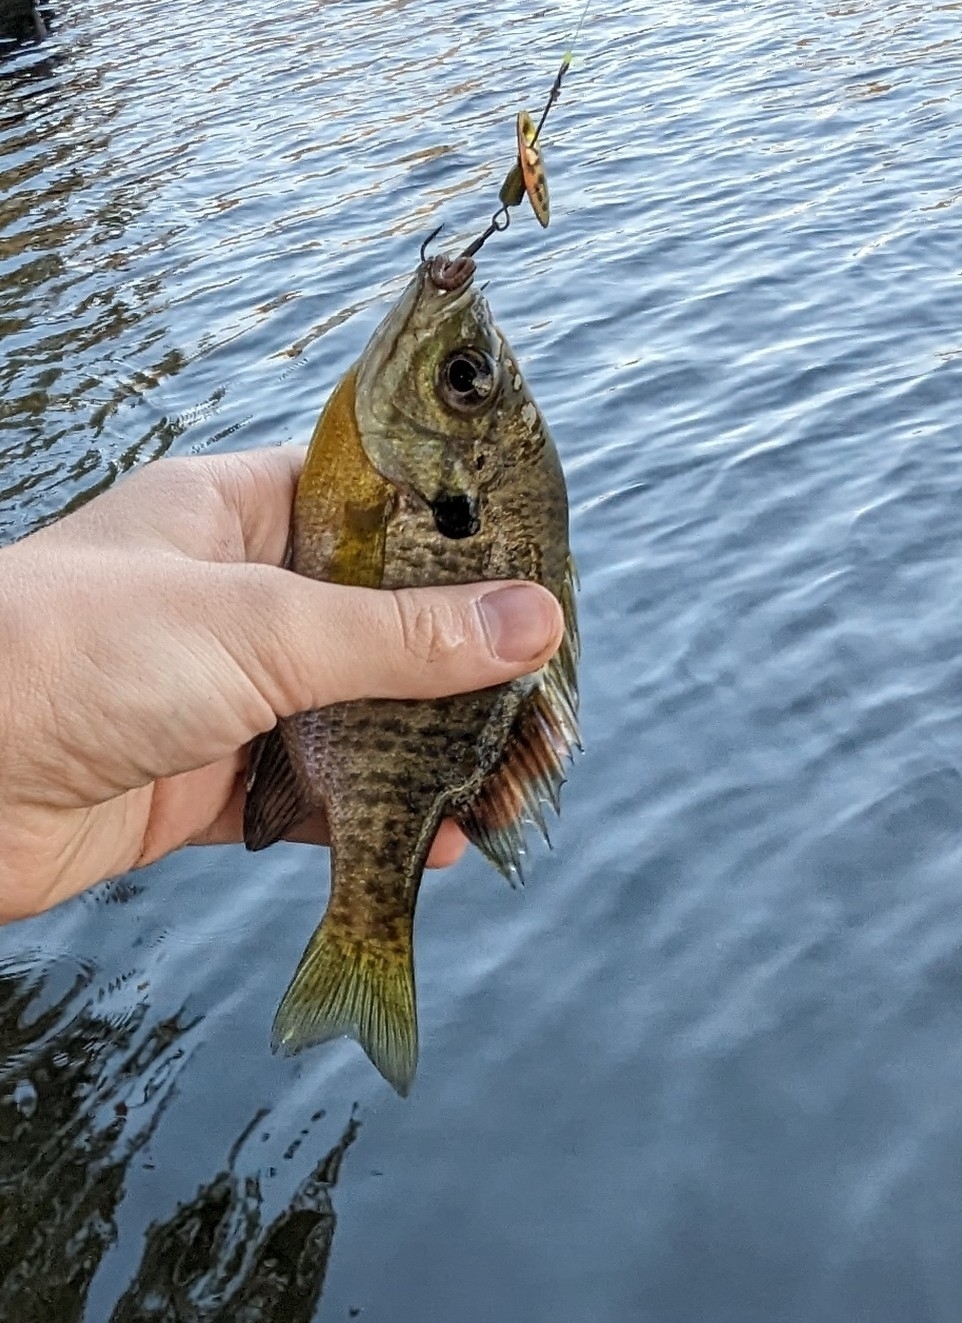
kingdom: Animalia
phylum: Chordata
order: Perciformes
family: Centrarchidae
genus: Lepomis
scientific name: Lepomis macrochirus
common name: Bluegill
